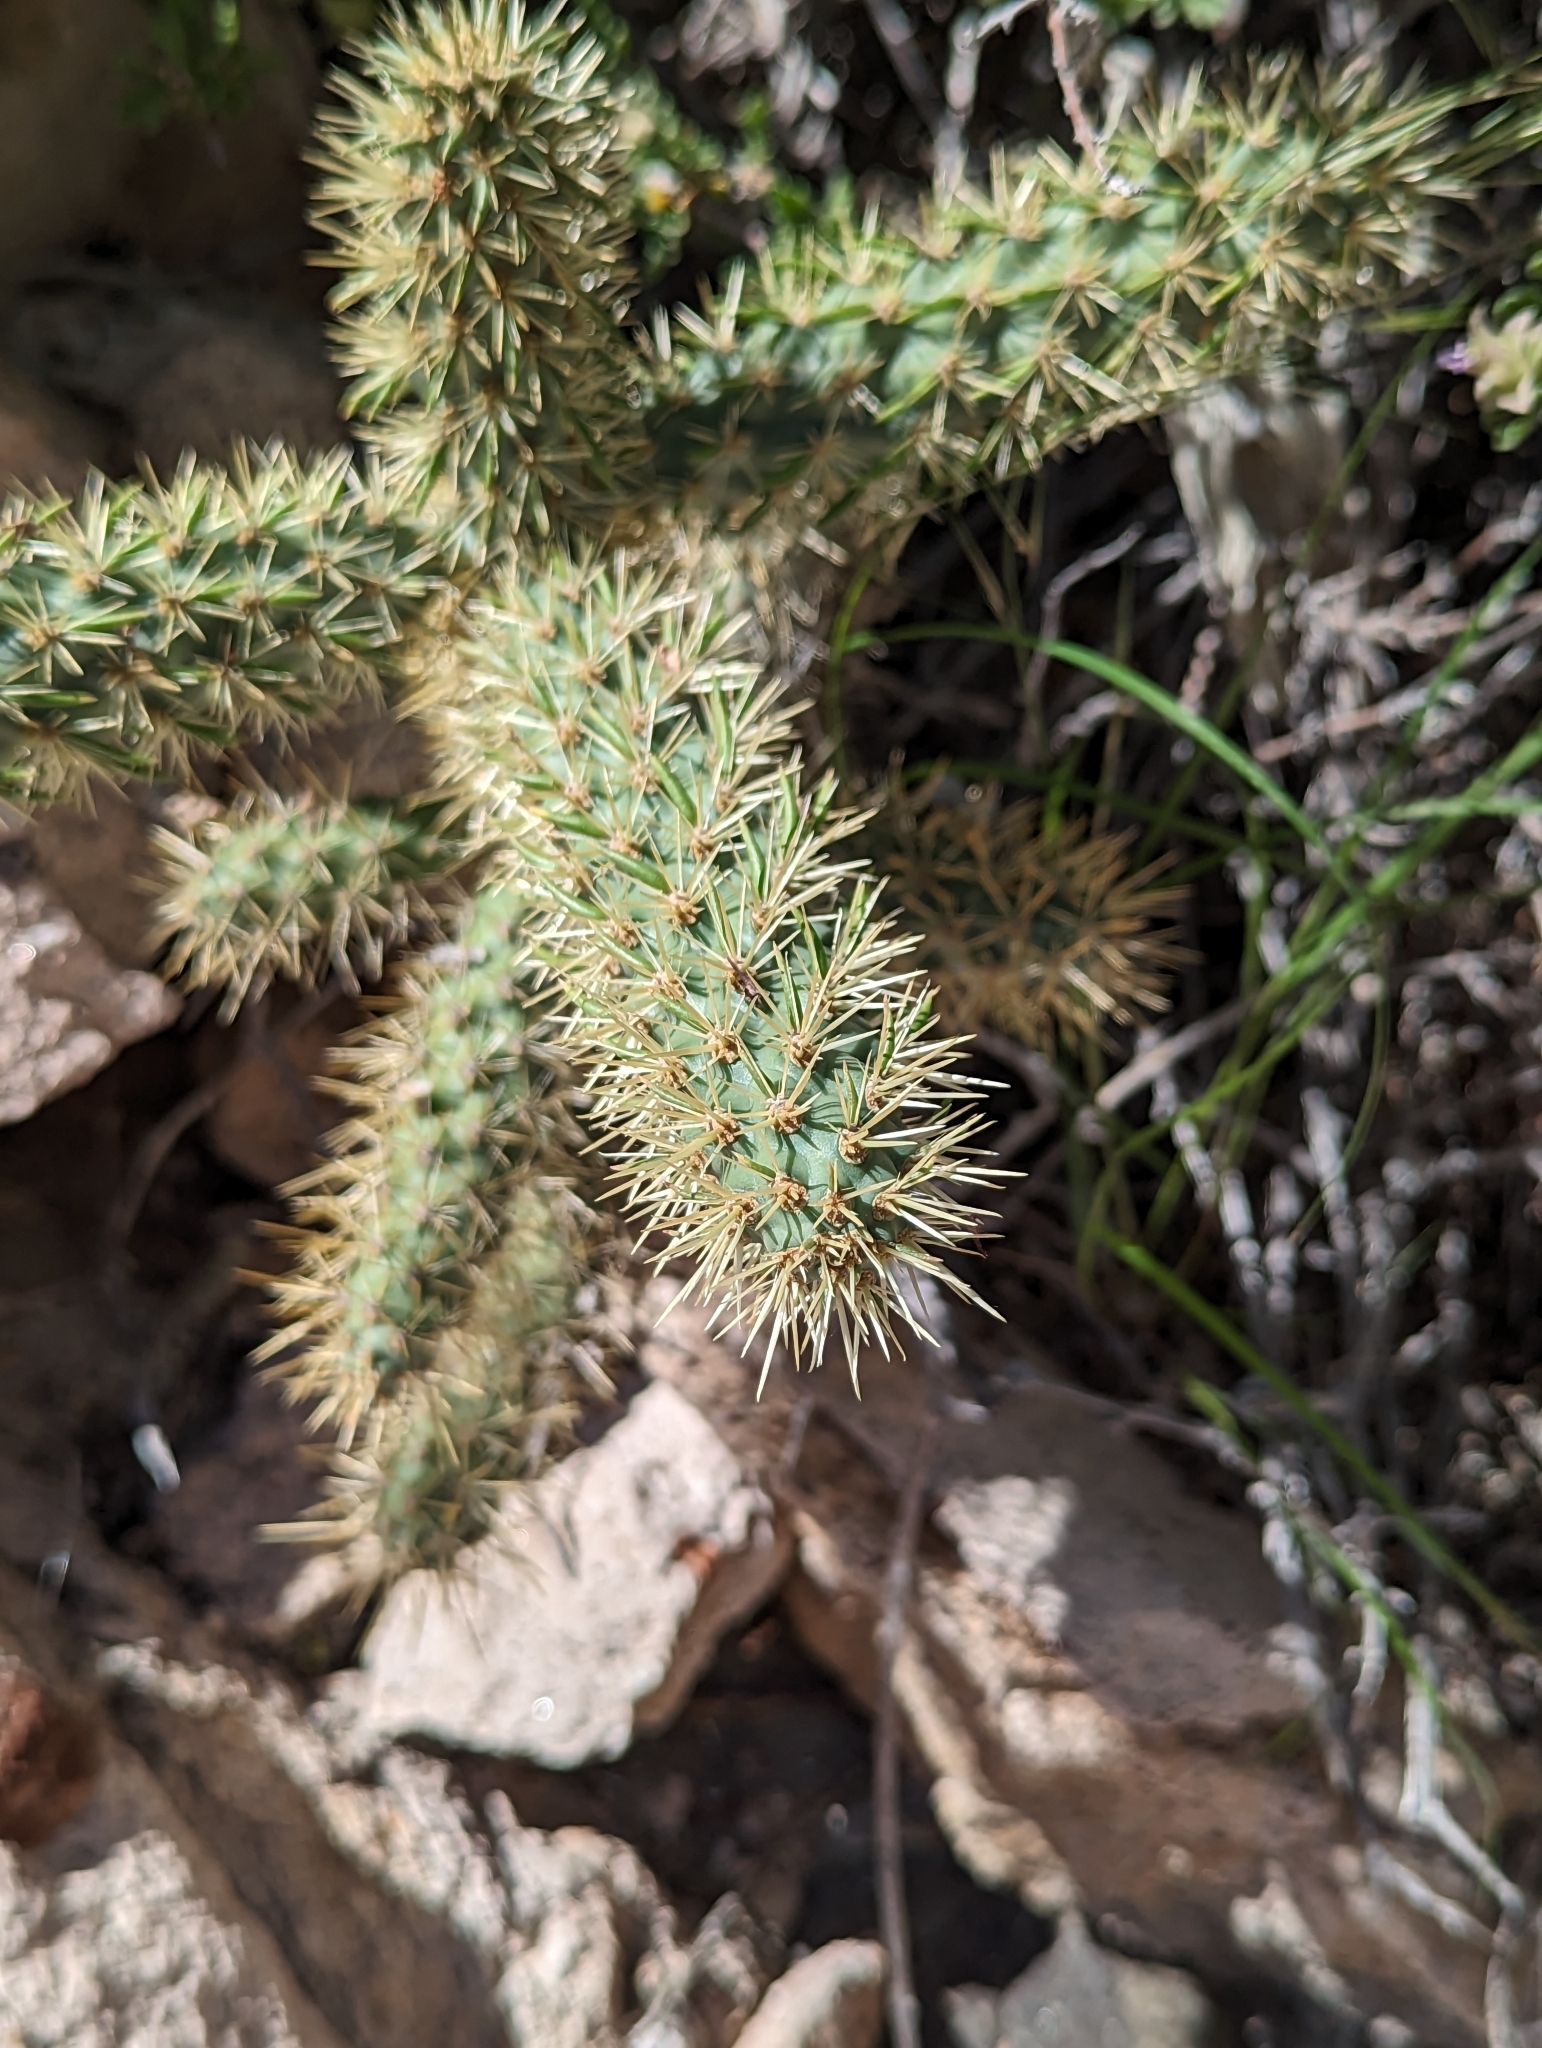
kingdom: Plantae
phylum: Tracheophyta
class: Magnoliopsida
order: Caryophyllales
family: Cactaceae
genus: Cylindropuntia
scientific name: Cylindropuntia alcahes
